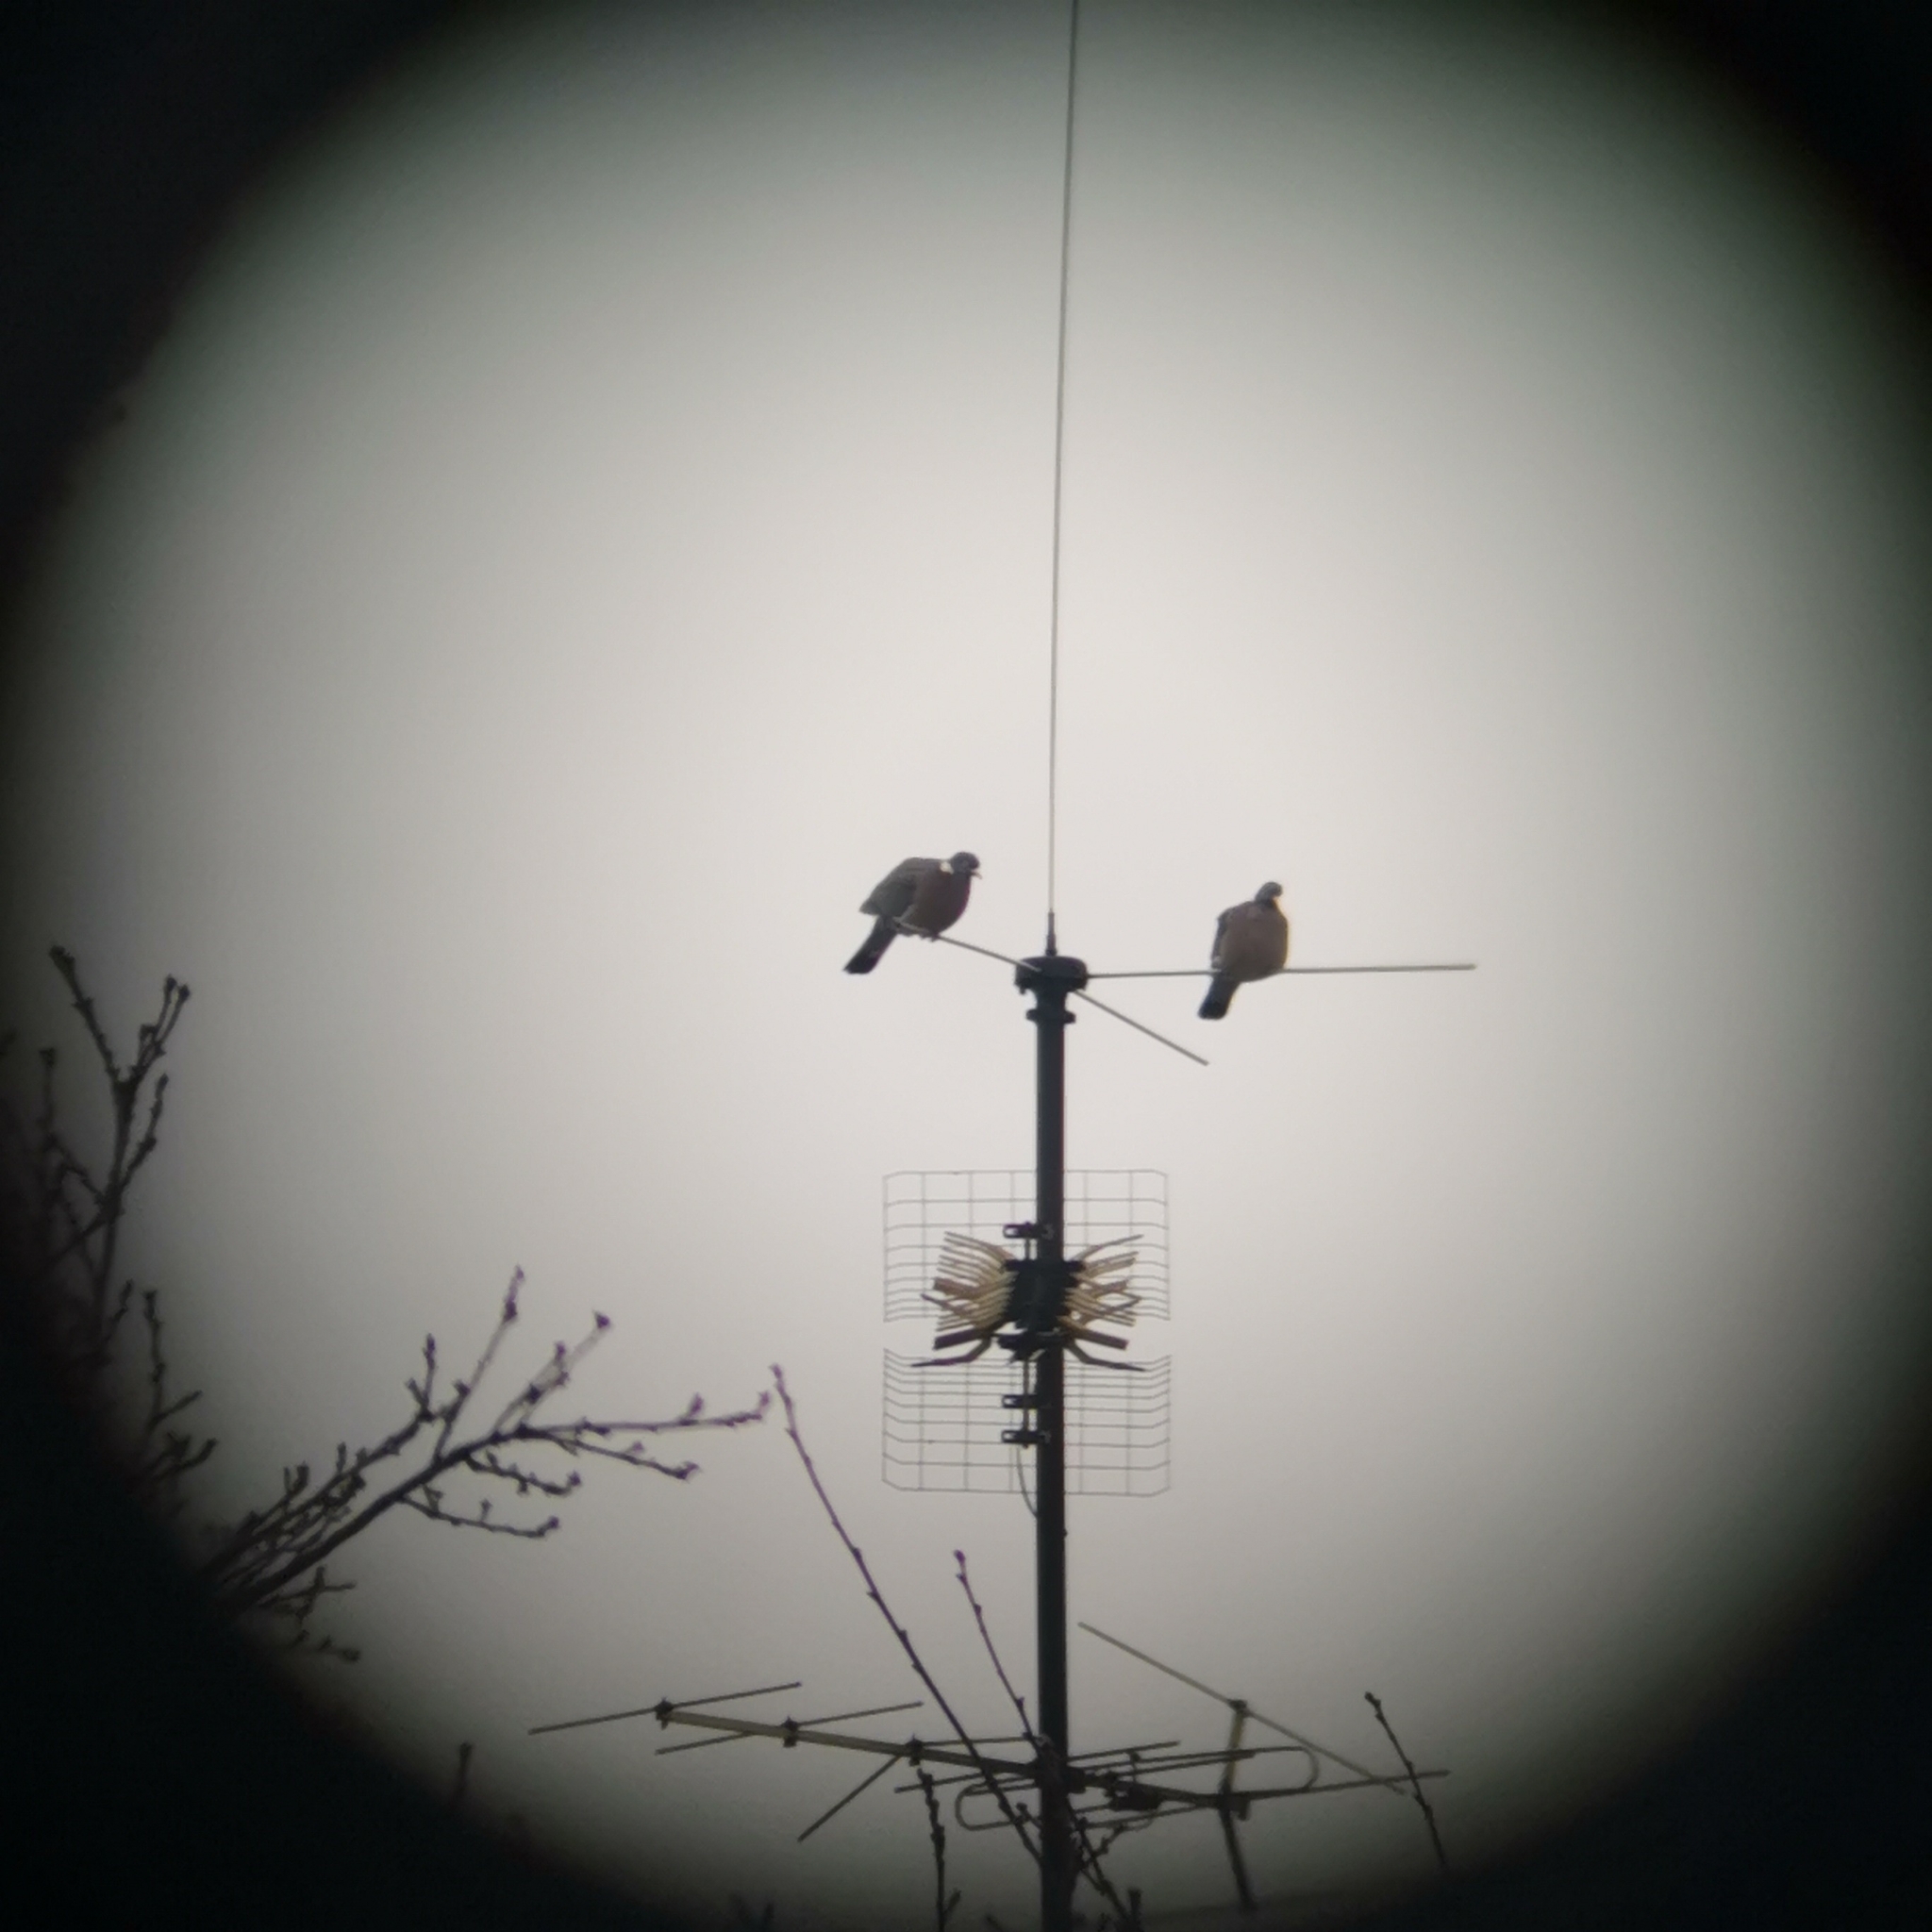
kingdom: Animalia
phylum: Chordata
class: Aves
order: Columbiformes
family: Columbidae
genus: Columba
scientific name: Columba palumbus
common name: Common wood pigeon
